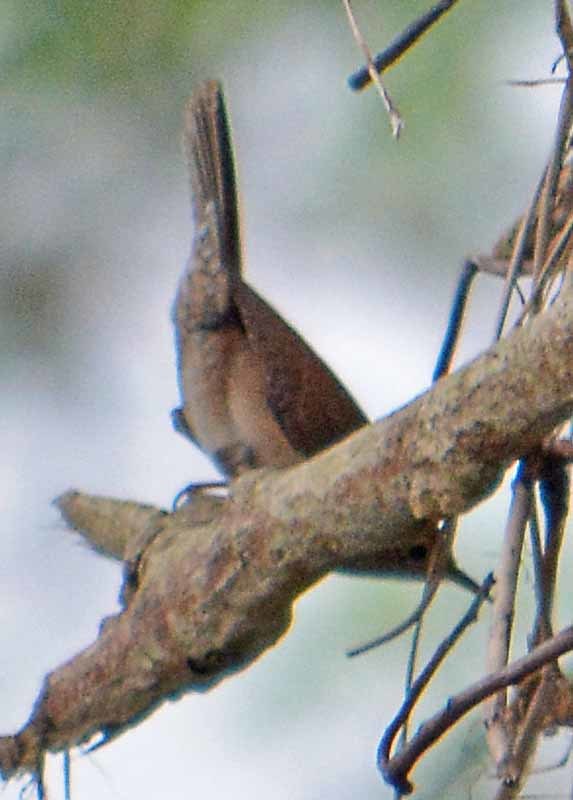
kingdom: Animalia
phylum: Chordata
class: Aves
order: Passeriformes
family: Troglodytidae
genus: Troglodytes
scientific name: Troglodytes aedon
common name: House wren
